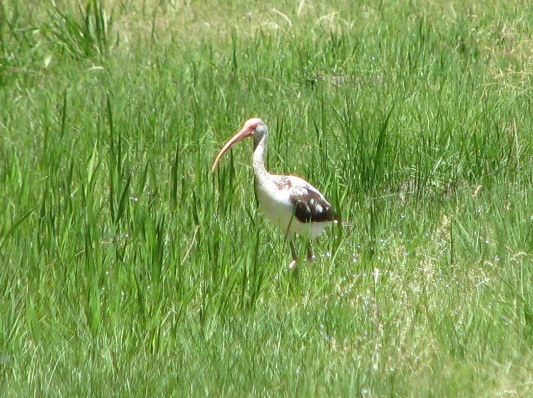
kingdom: Animalia
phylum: Chordata
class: Aves
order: Pelecaniformes
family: Threskiornithidae
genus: Eudocimus
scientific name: Eudocimus albus
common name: White ibis
